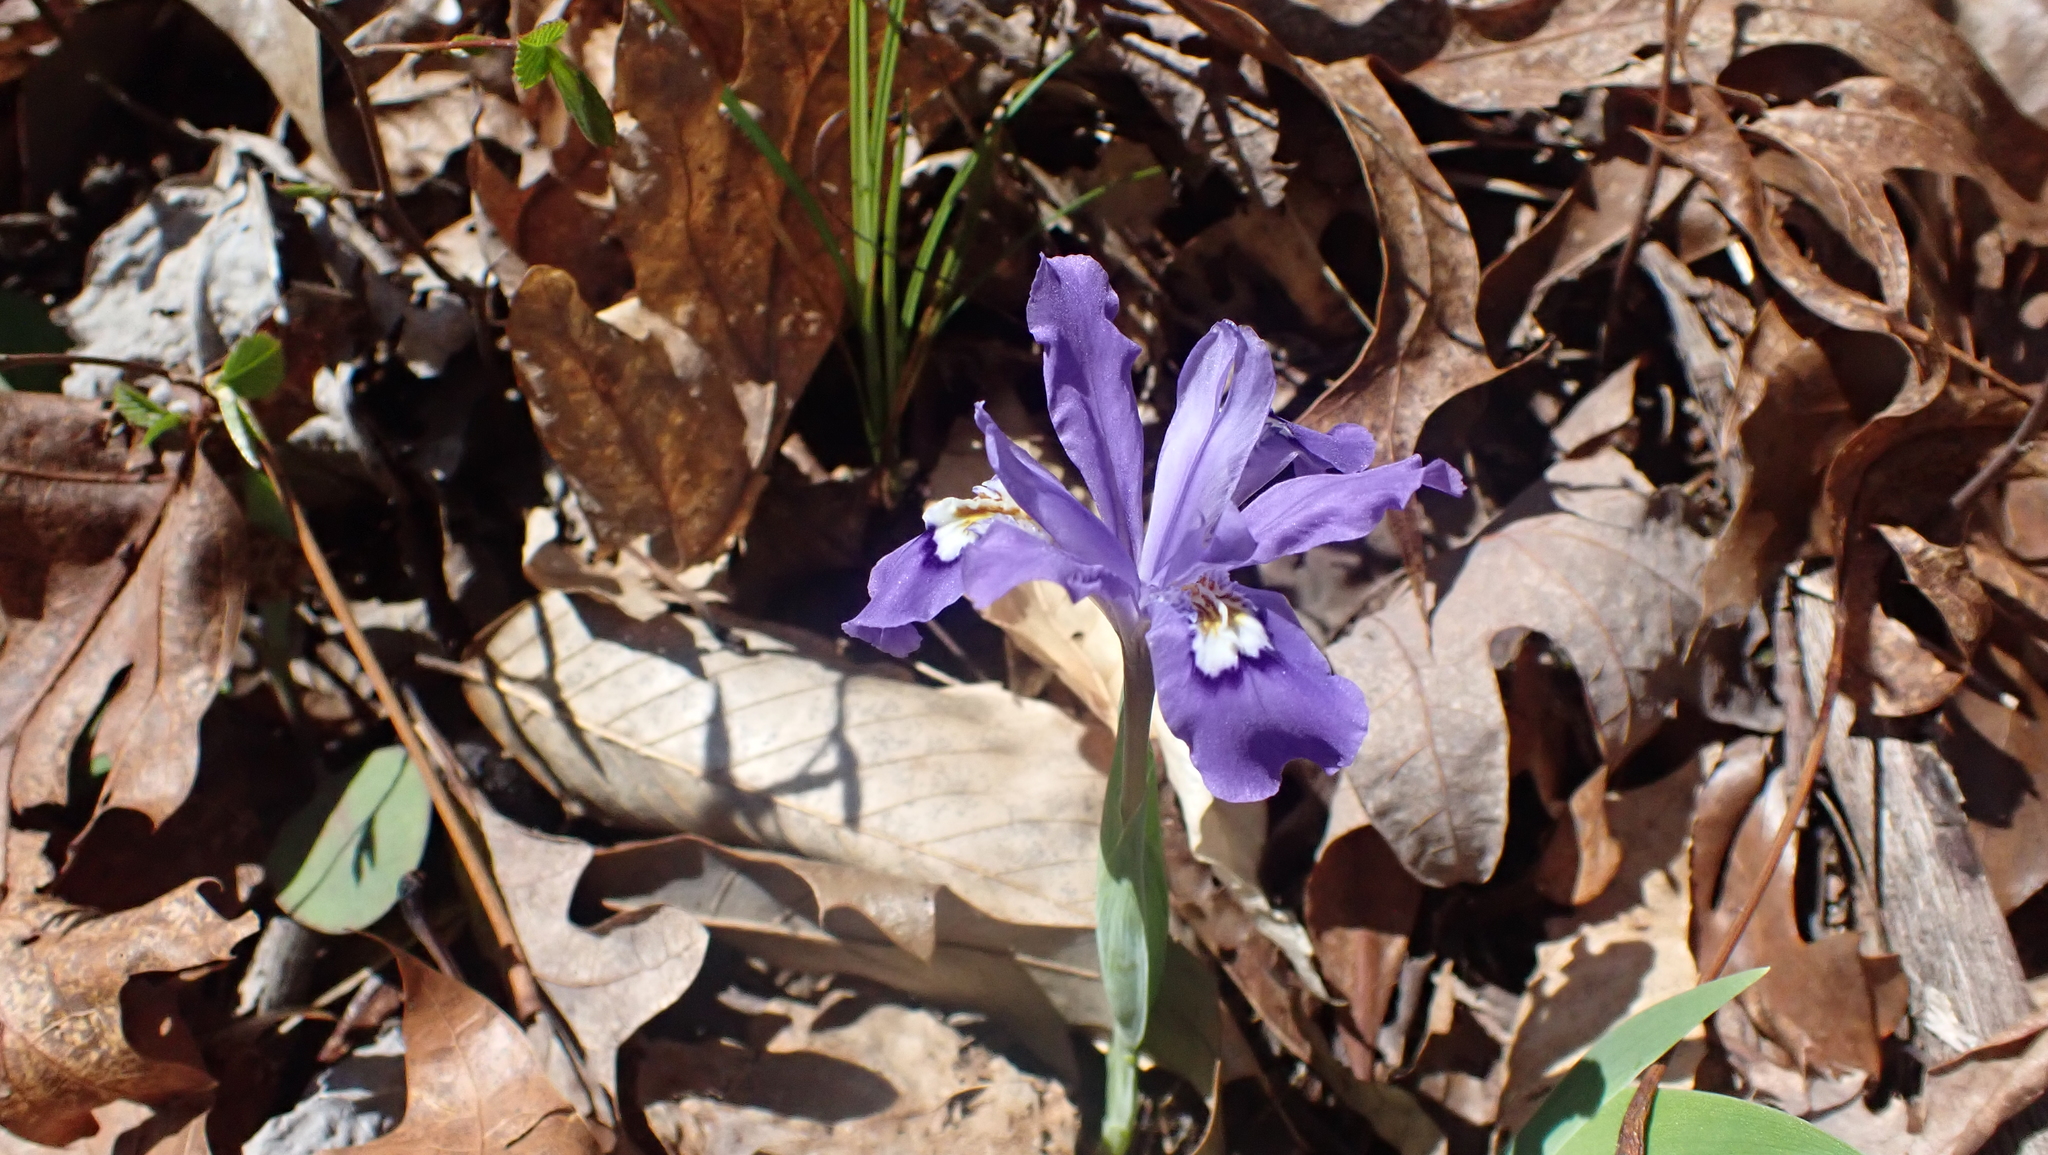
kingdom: Plantae
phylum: Tracheophyta
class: Liliopsida
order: Asparagales
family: Iridaceae
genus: Iris
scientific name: Iris cristata
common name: Crested iris
